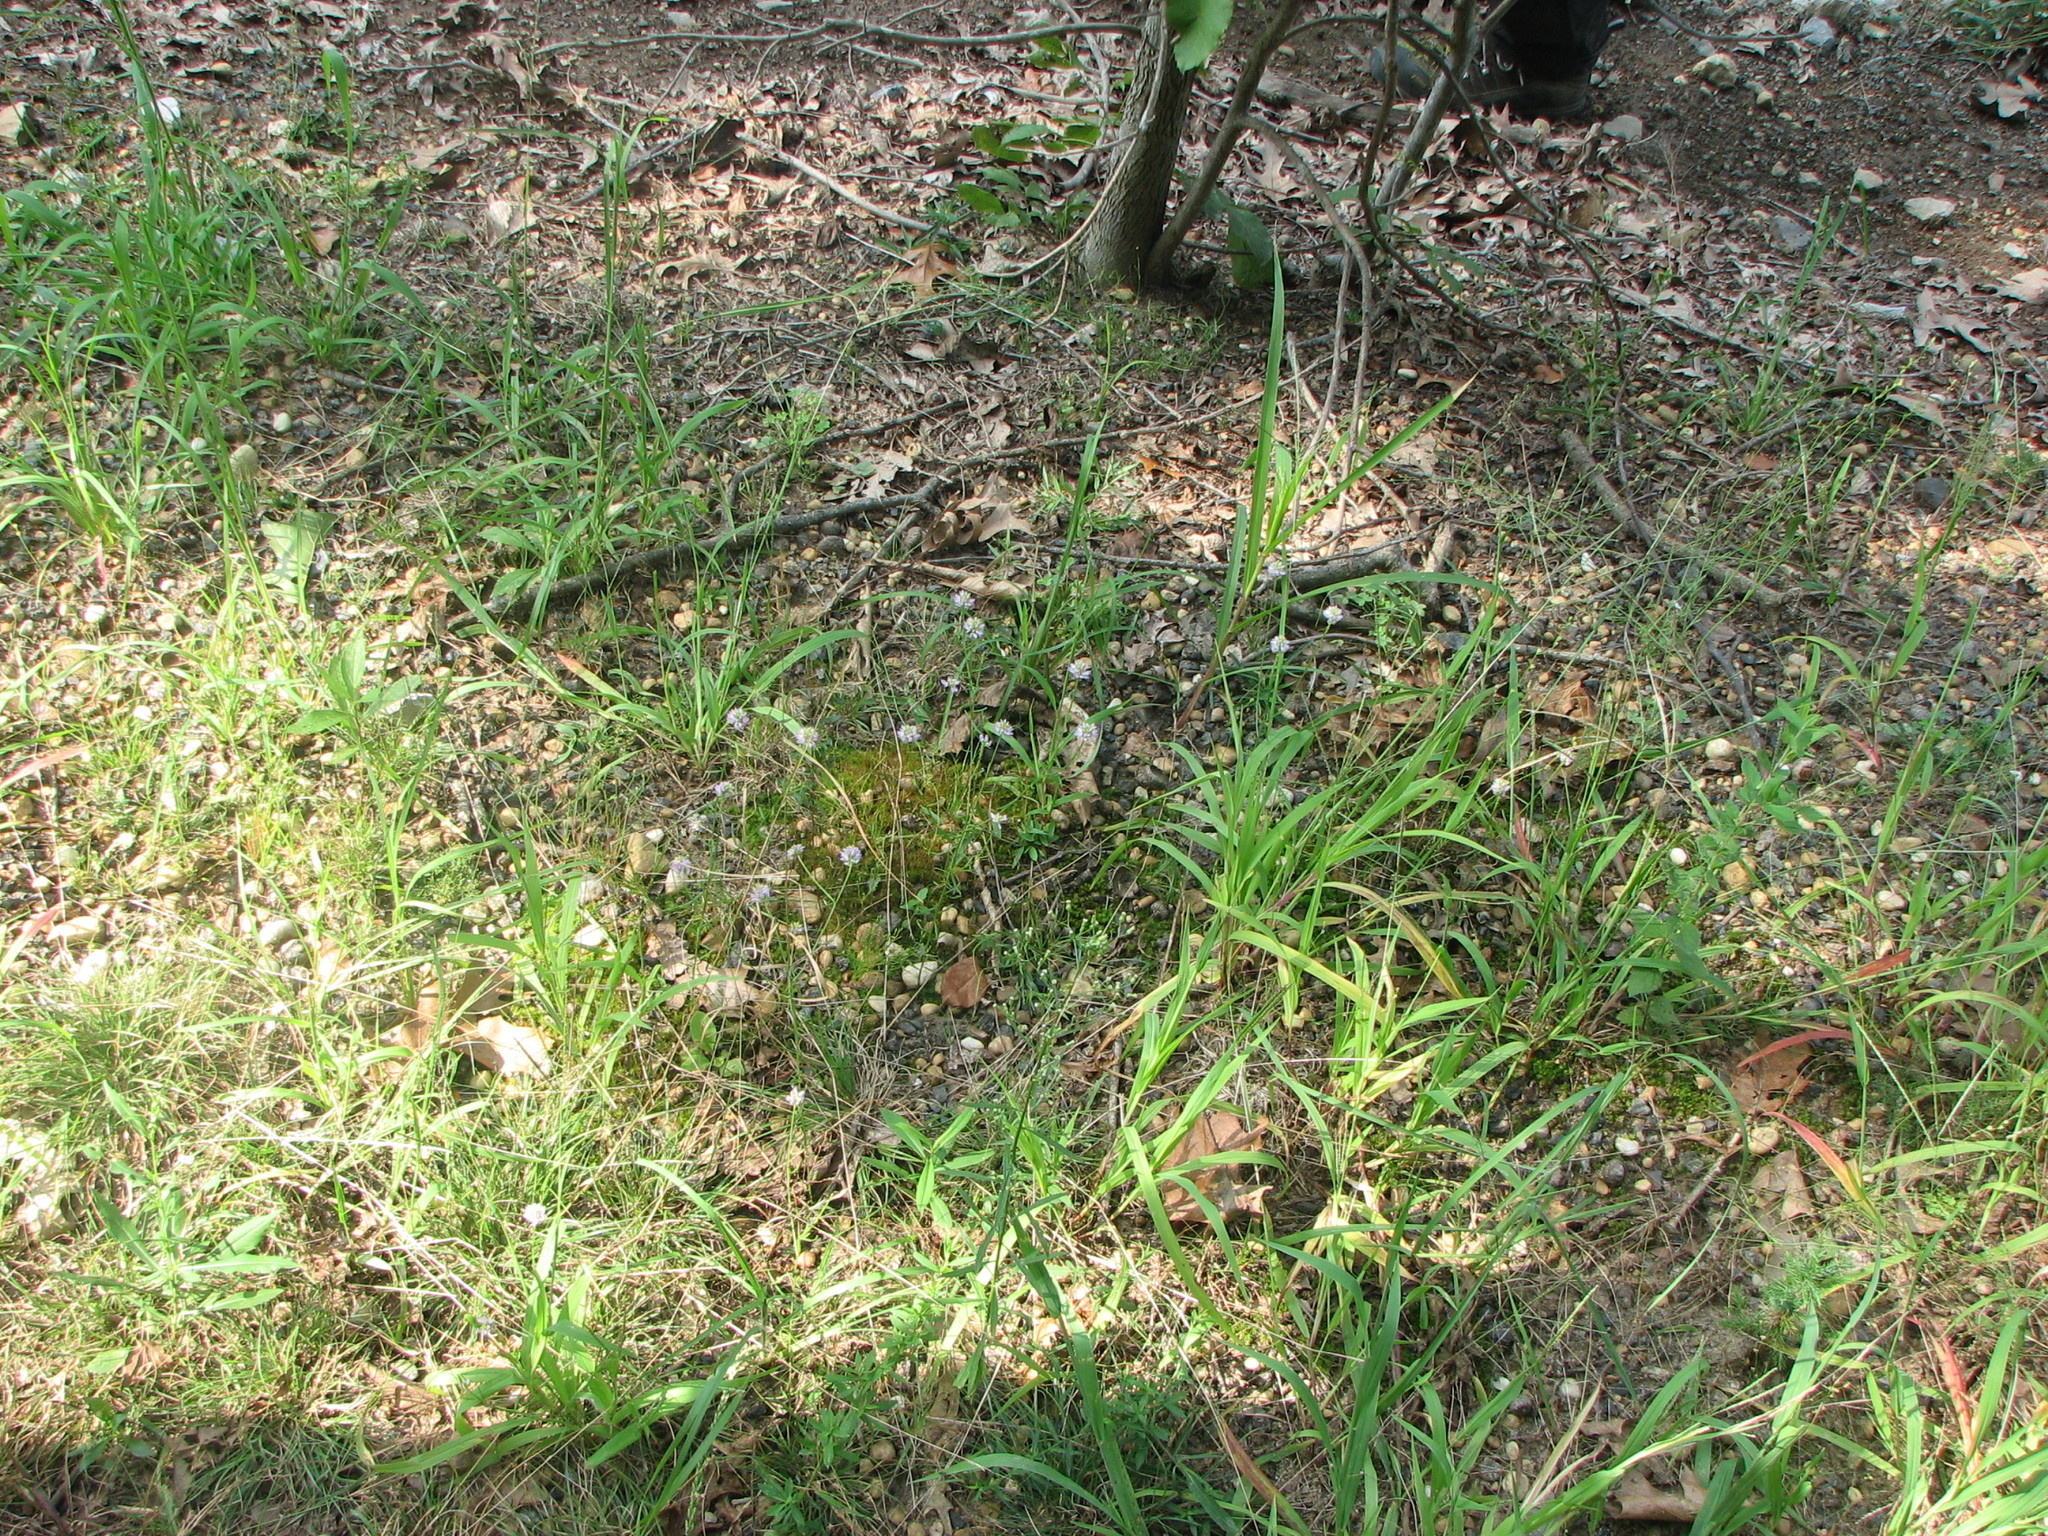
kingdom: Plantae
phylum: Tracheophyta
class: Magnoliopsida
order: Fabales
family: Polygalaceae
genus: Polygala
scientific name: Polygala curtissii
